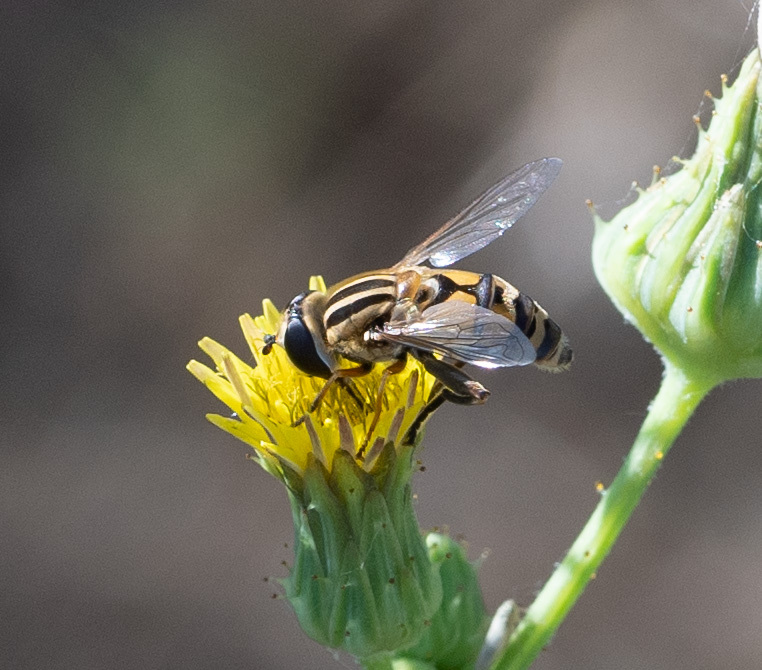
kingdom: Animalia
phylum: Arthropoda
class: Insecta
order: Diptera
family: Syrphidae
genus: Helophilus
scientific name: Helophilus latifrons
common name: Broad-headed marsh fly
